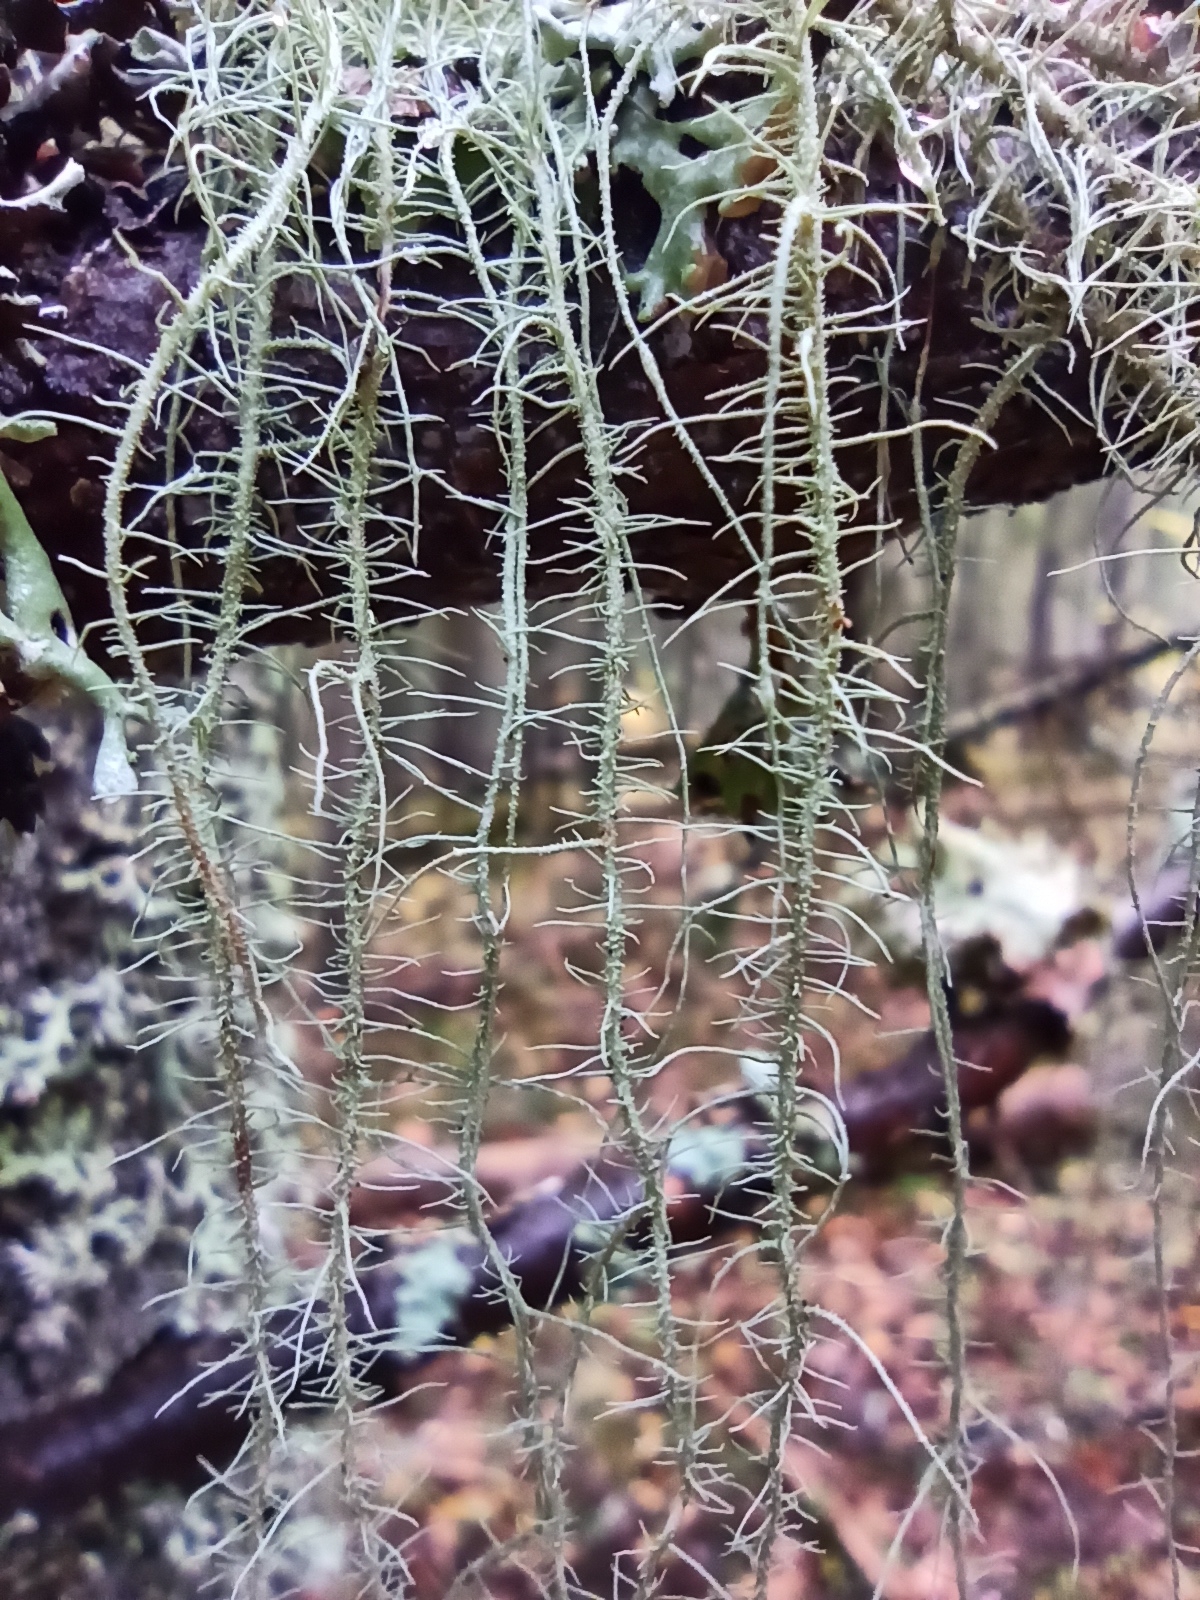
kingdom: Fungi
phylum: Ascomycota
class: Lecanoromycetes
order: Lecanorales
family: Parmeliaceae
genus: Usnea
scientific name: Usnea dasopoga
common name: Fishbone beard lichen
